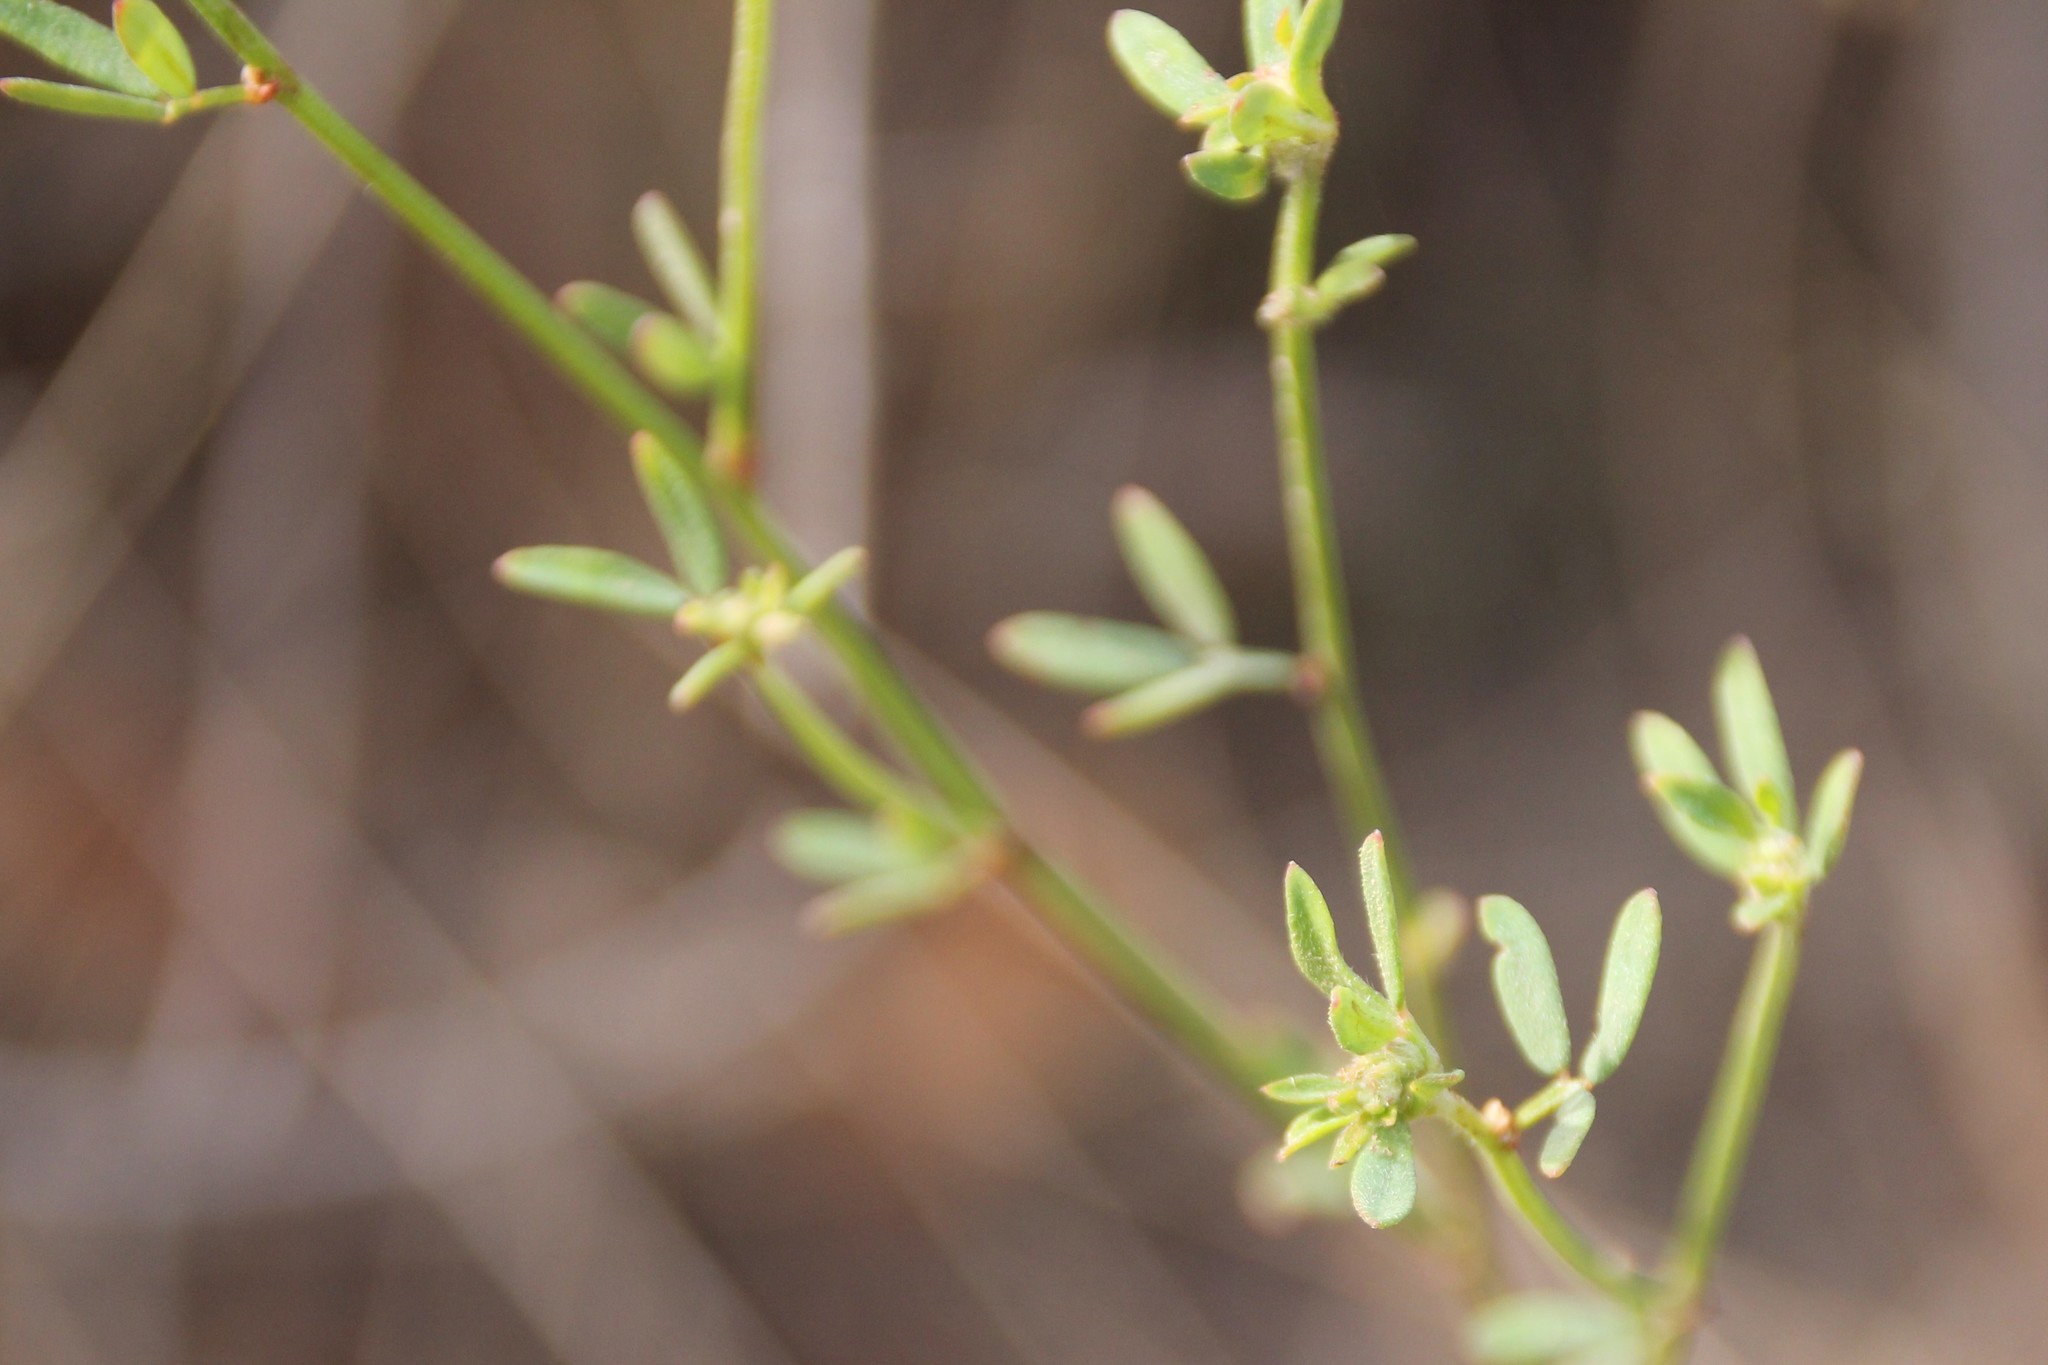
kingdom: Plantae
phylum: Tracheophyta
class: Magnoliopsida
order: Fabales
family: Fabaceae
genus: Acmispon
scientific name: Acmispon glaber
